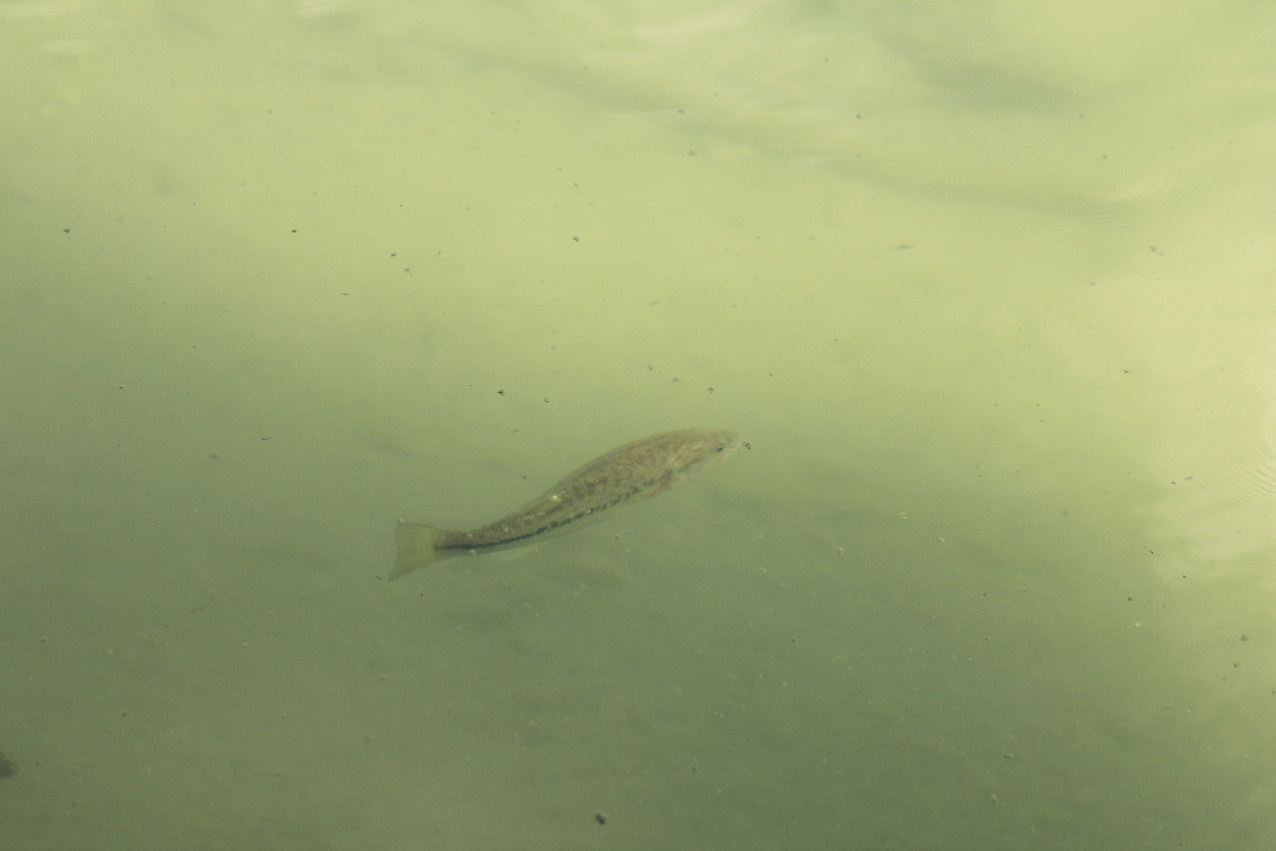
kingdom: Animalia
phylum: Chordata
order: Perciformes
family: Centrarchidae
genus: Micropterus
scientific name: Micropterus
